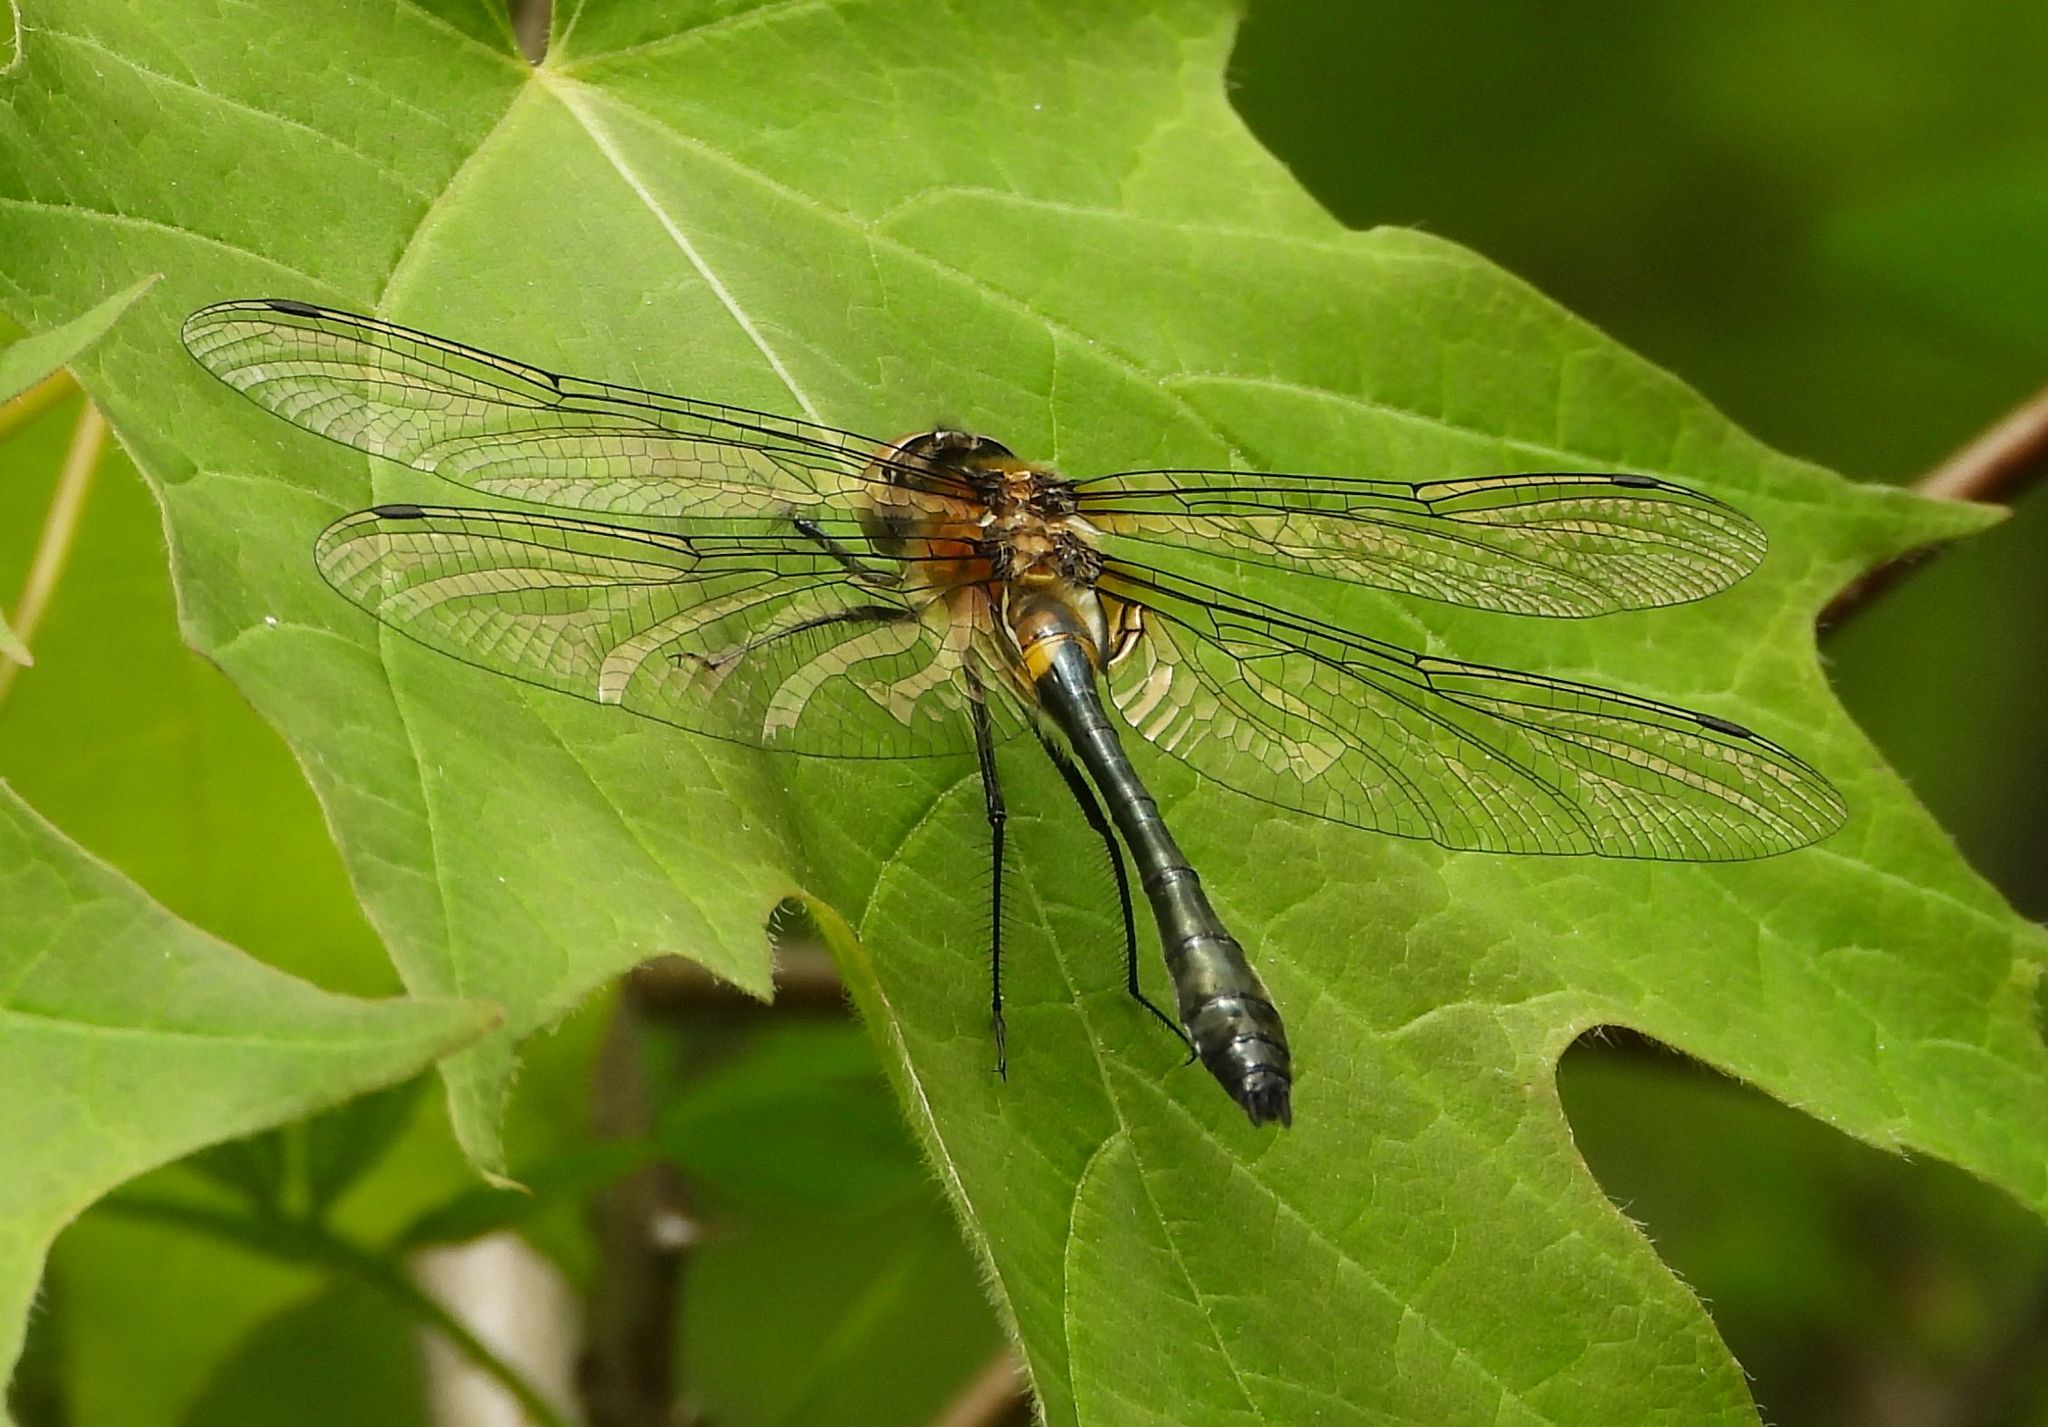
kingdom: Animalia
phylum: Arthropoda
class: Insecta
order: Odonata
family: Corduliidae
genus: Dorocordulia
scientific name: Dorocordulia libera
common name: Racket-tailed emerald
